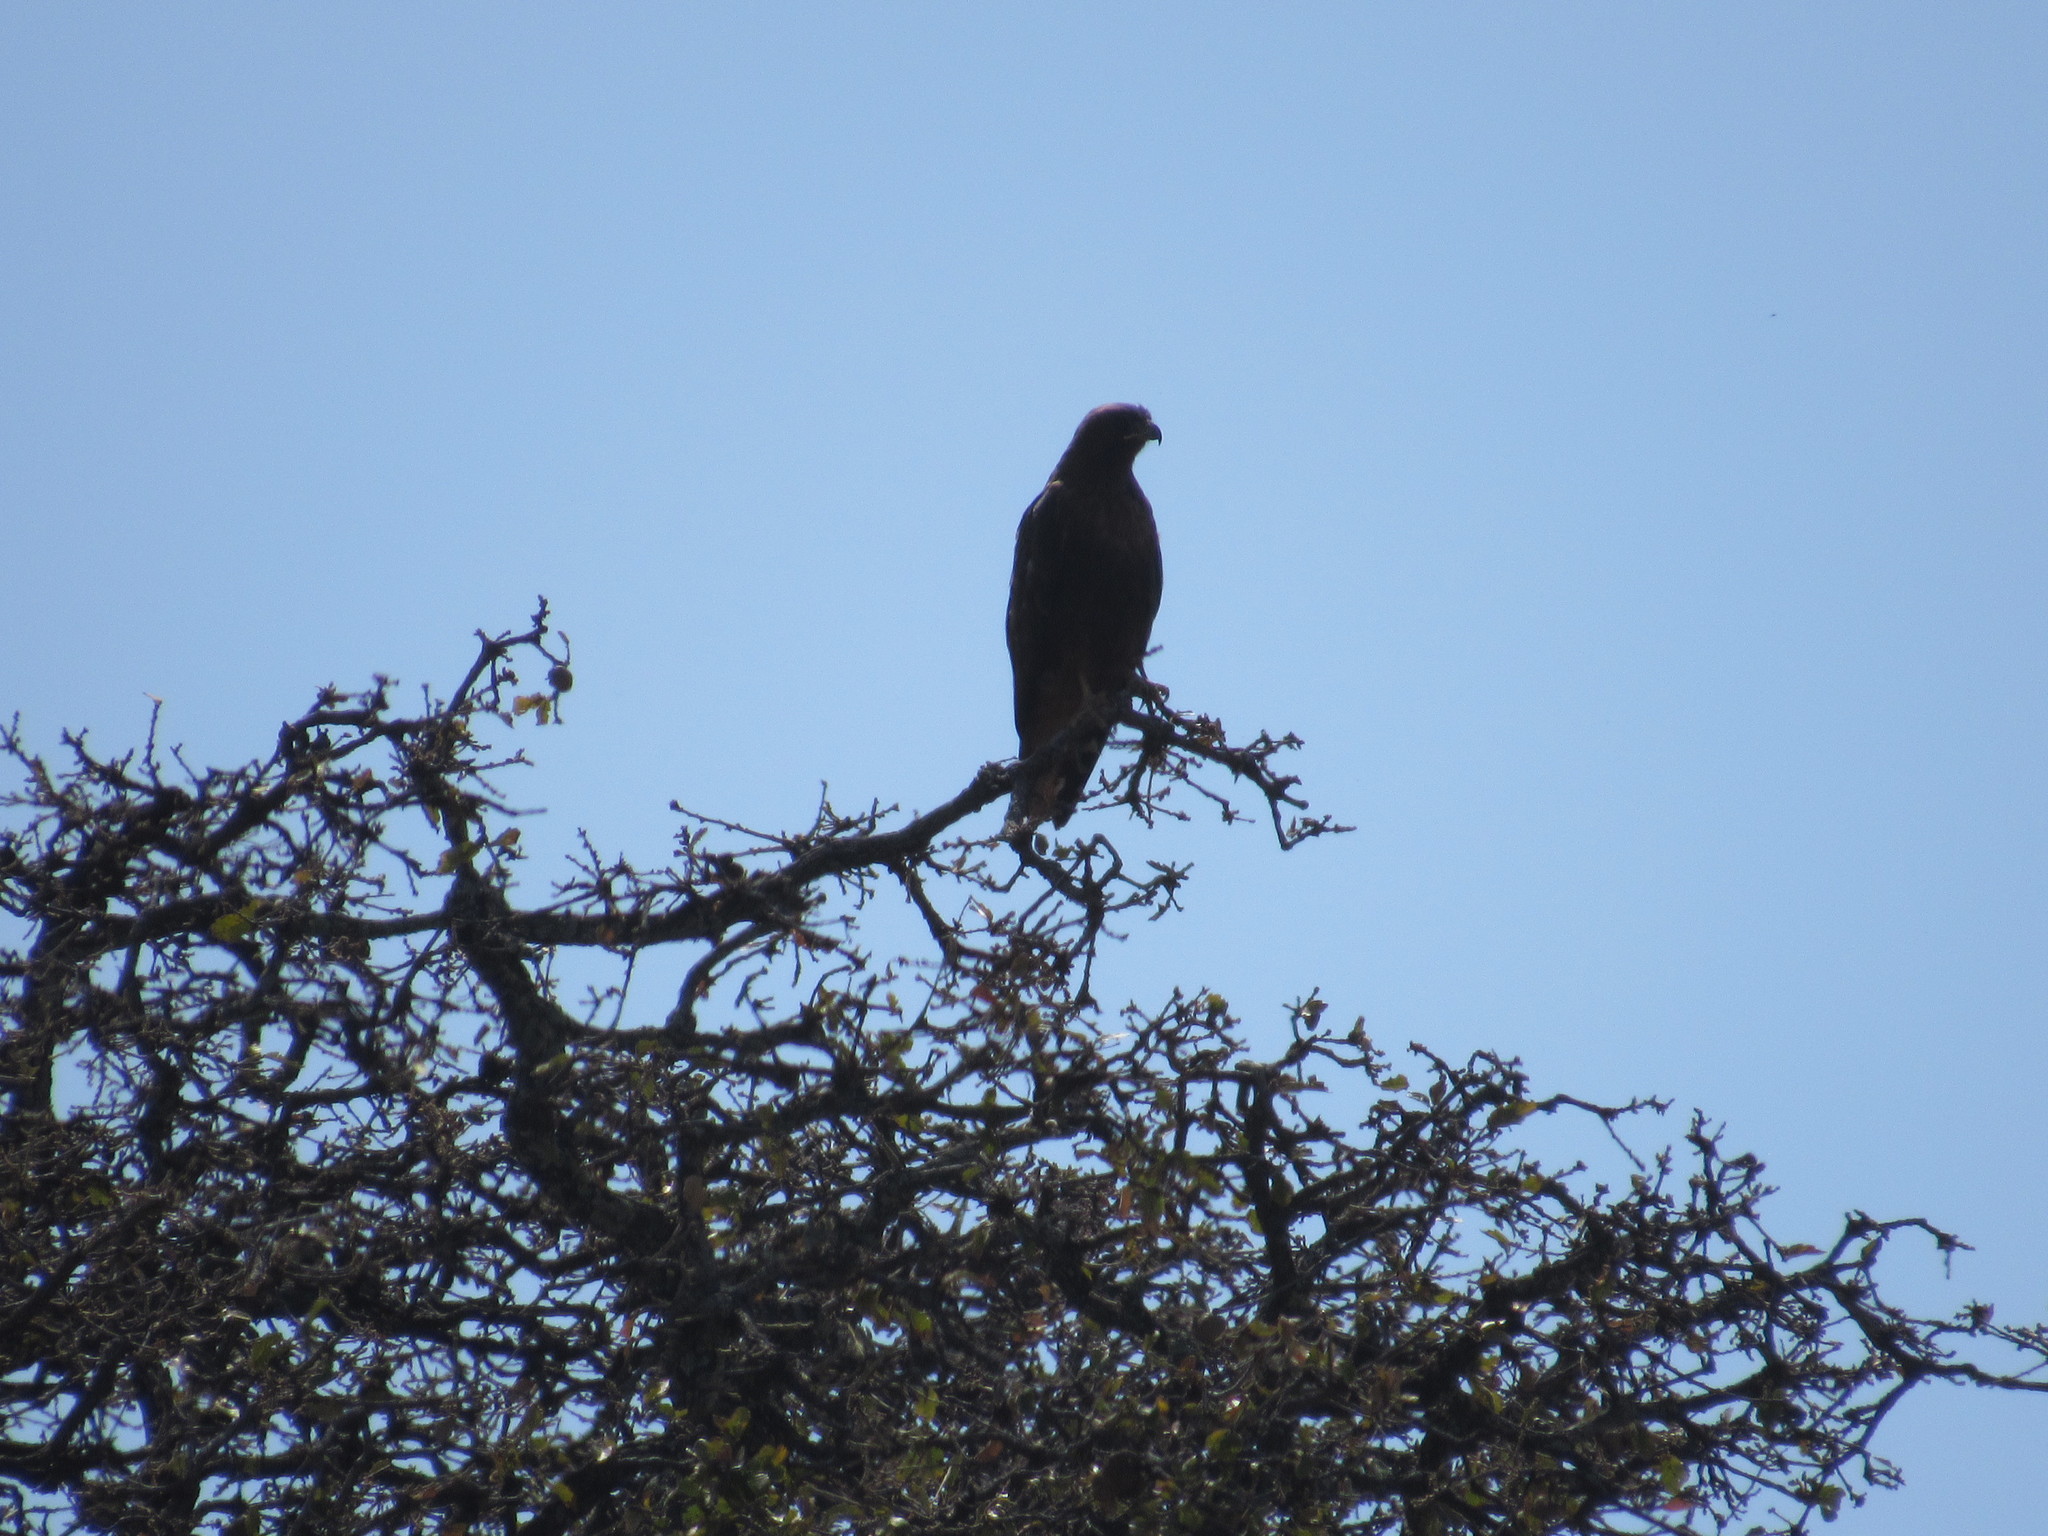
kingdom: Animalia
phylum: Chordata
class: Aves
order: Accipitriformes
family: Accipitridae
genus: Buteo
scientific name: Buteo jamaicensis
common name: Red-tailed hawk
